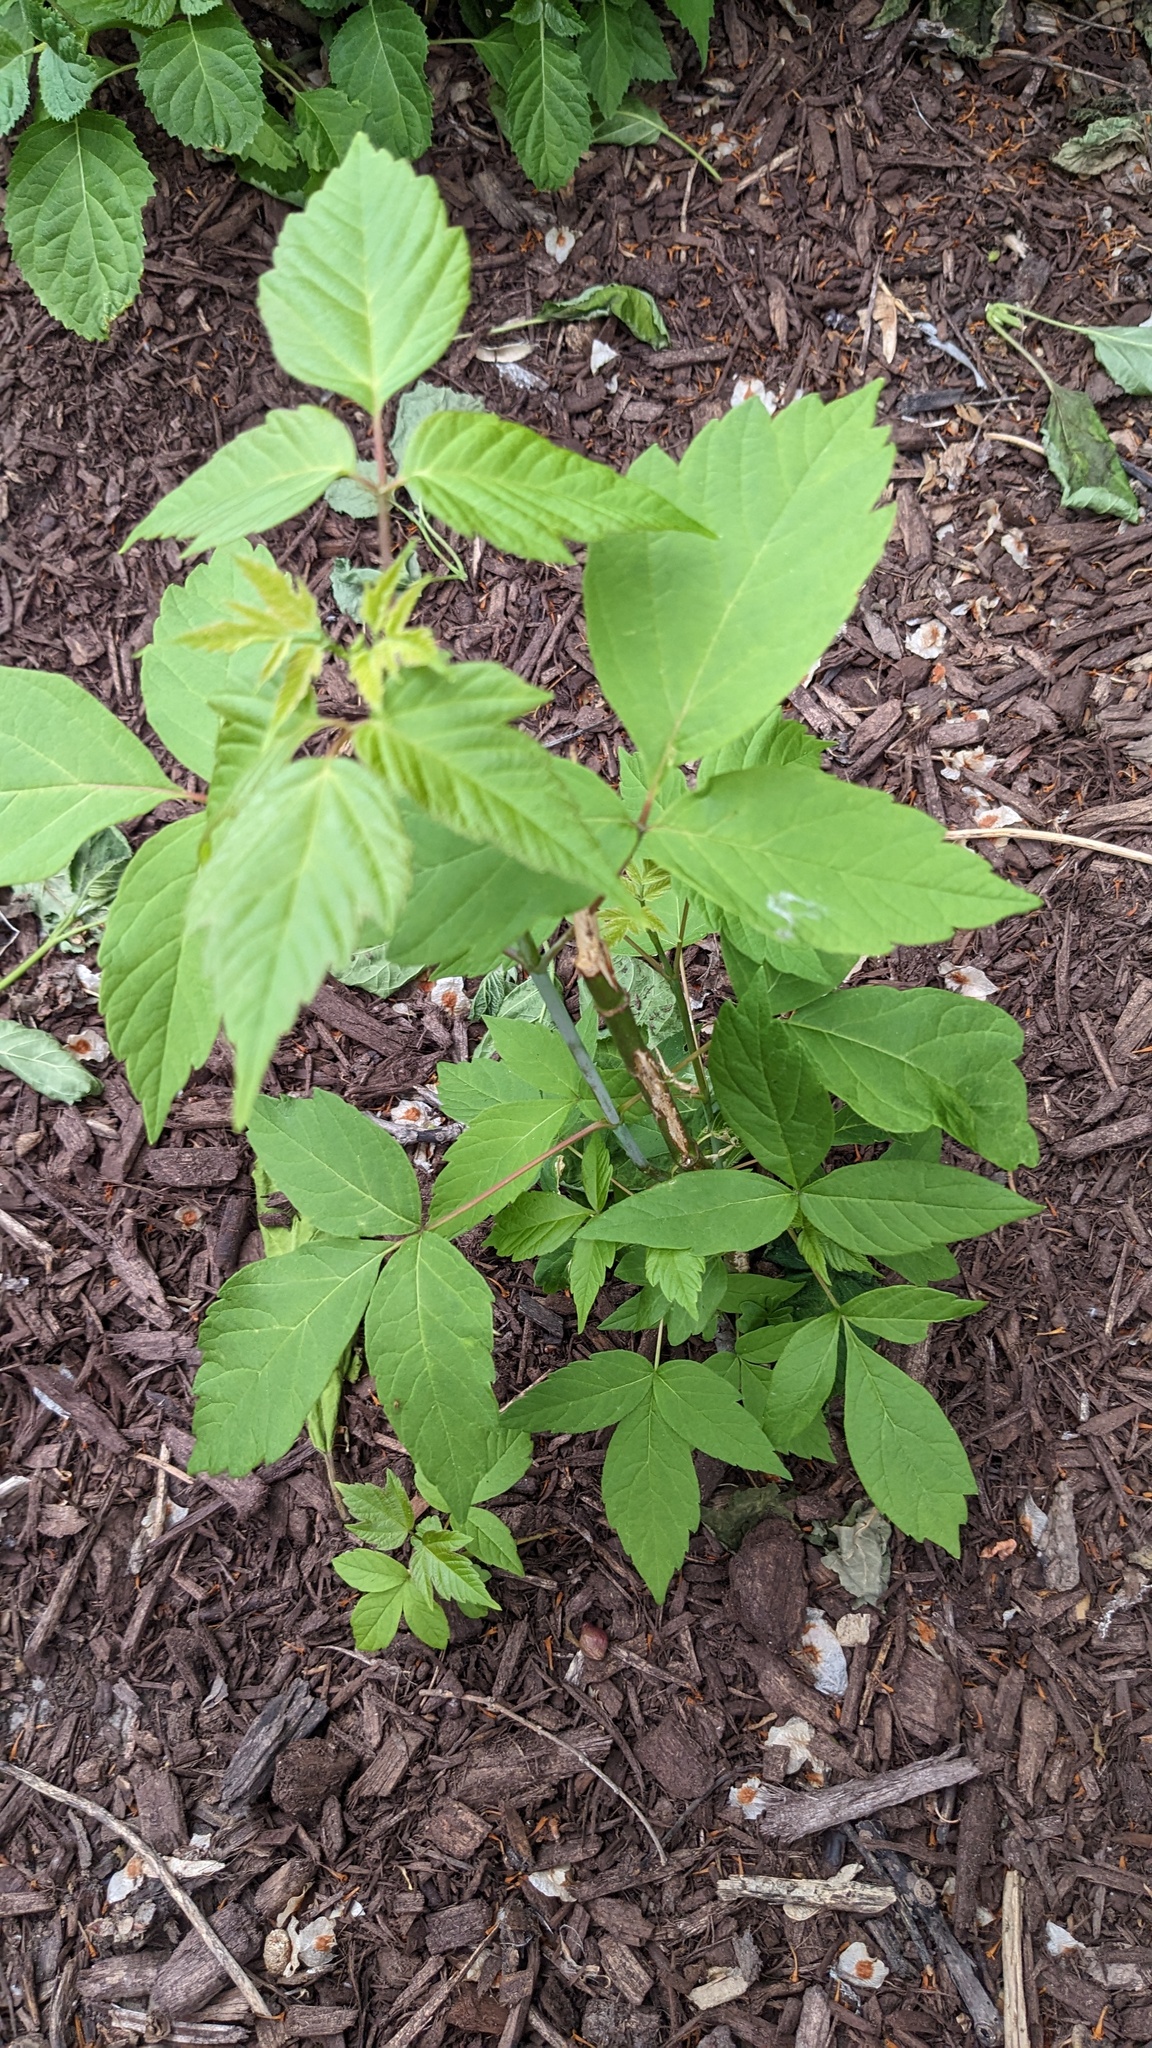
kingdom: Plantae
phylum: Tracheophyta
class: Magnoliopsida
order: Sapindales
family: Sapindaceae
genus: Acer
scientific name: Acer negundo
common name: Ashleaf maple
